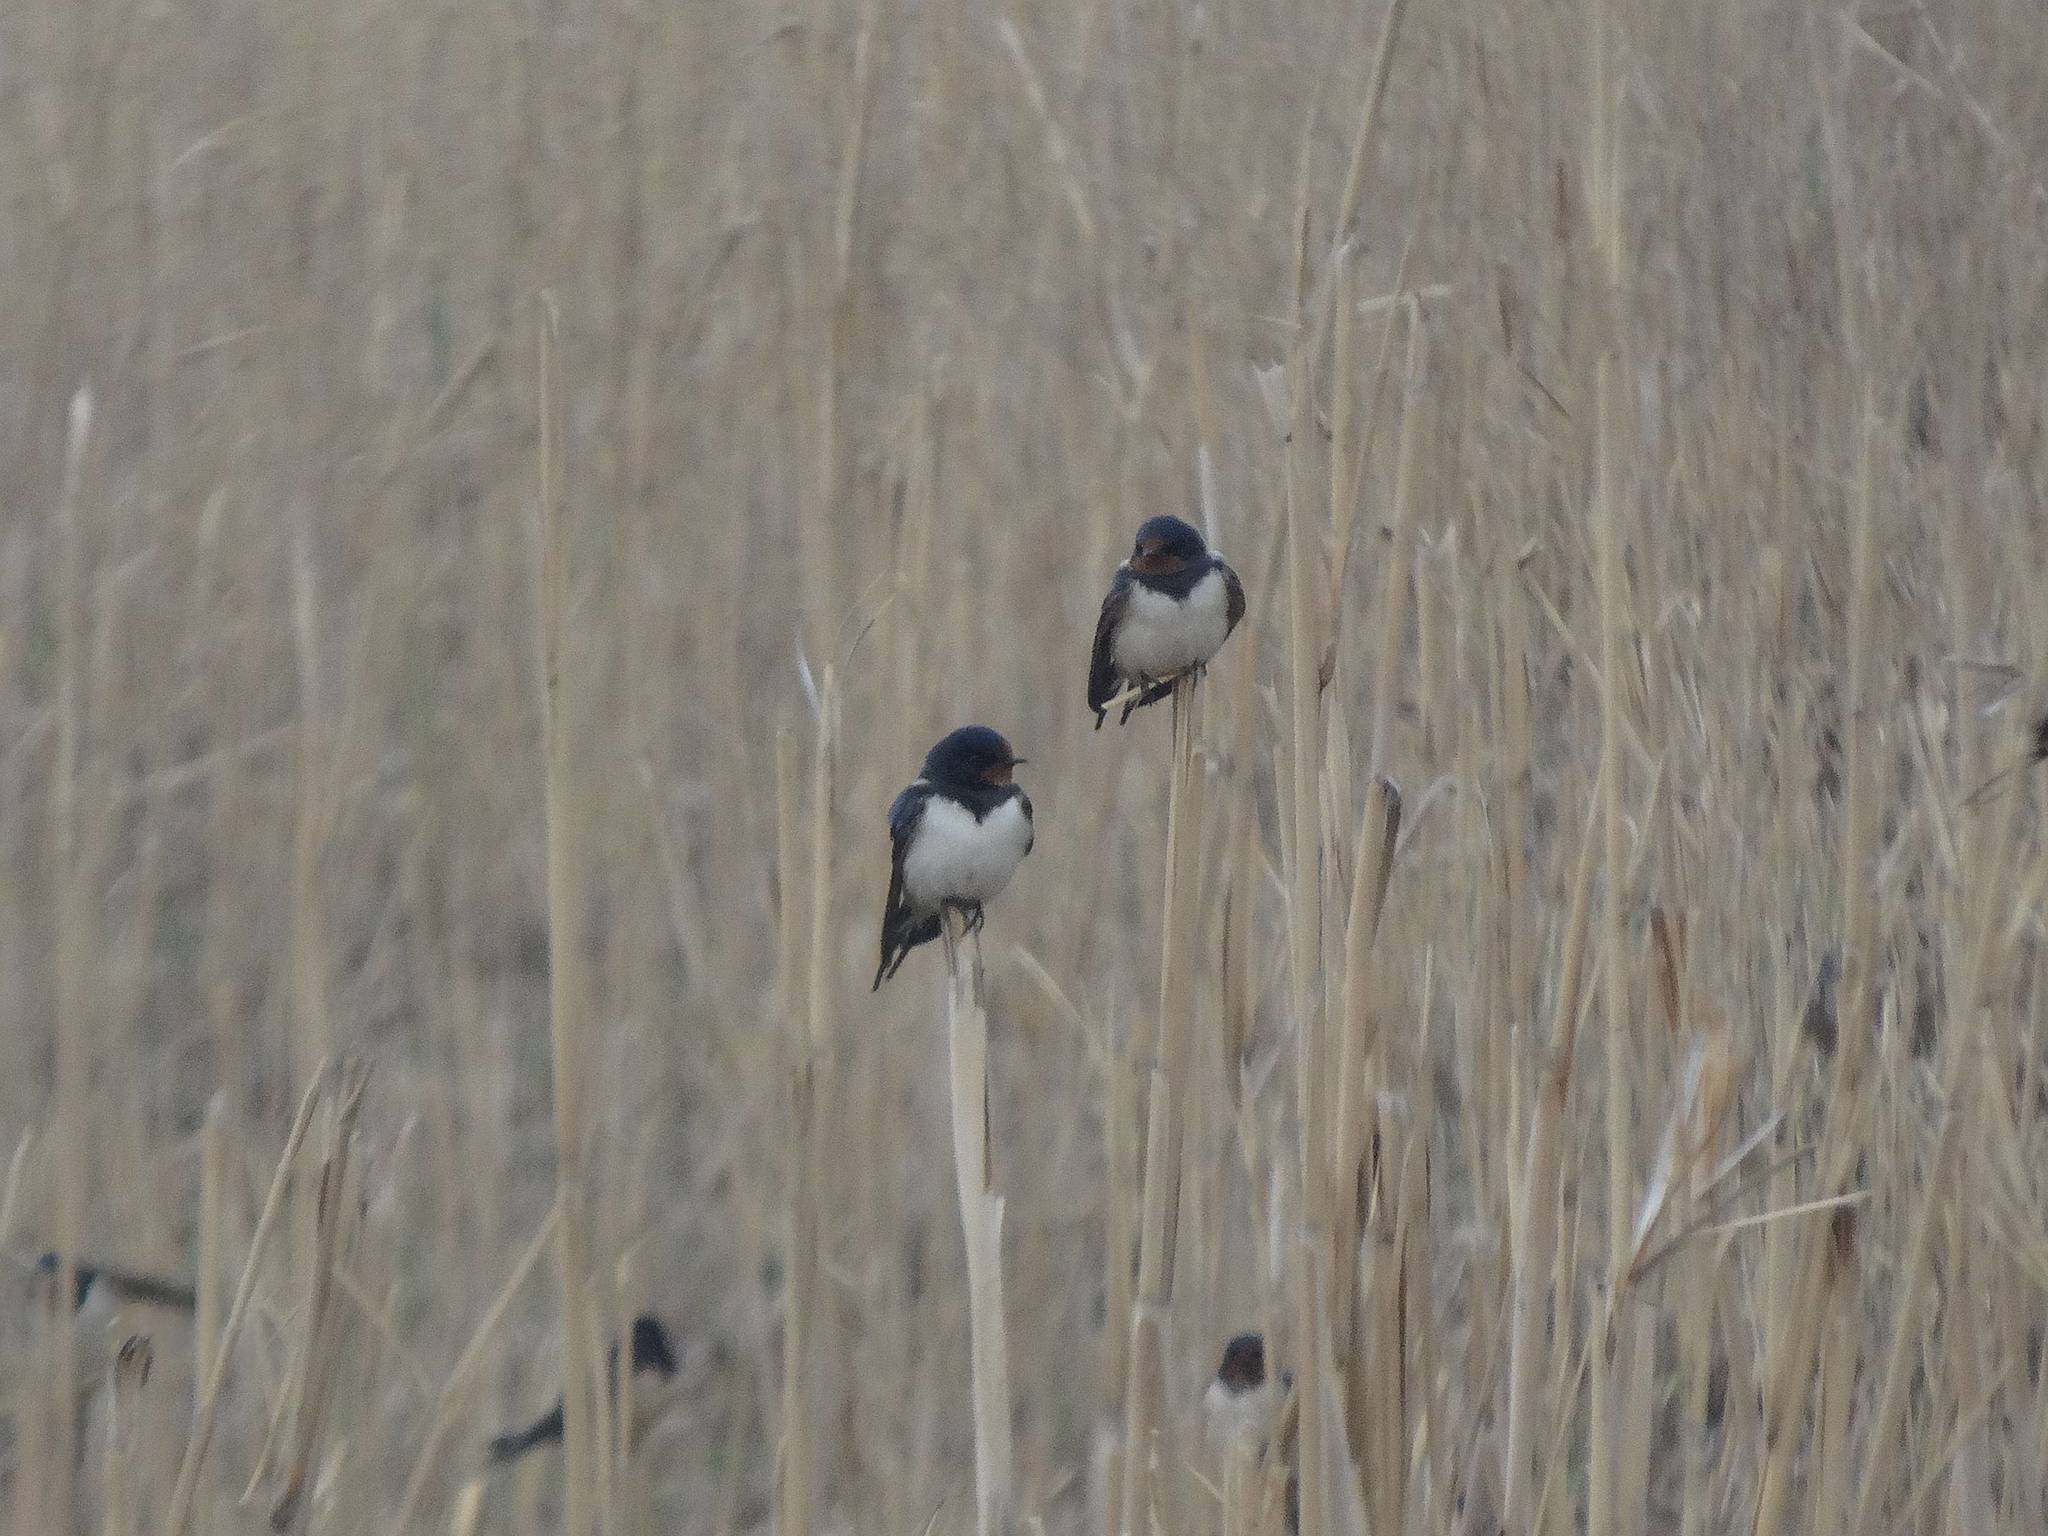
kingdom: Animalia
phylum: Chordata
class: Aves
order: Passeriformes
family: Hirundinidae
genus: Hirundo
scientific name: Hirundo rustica
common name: Barn swallow
